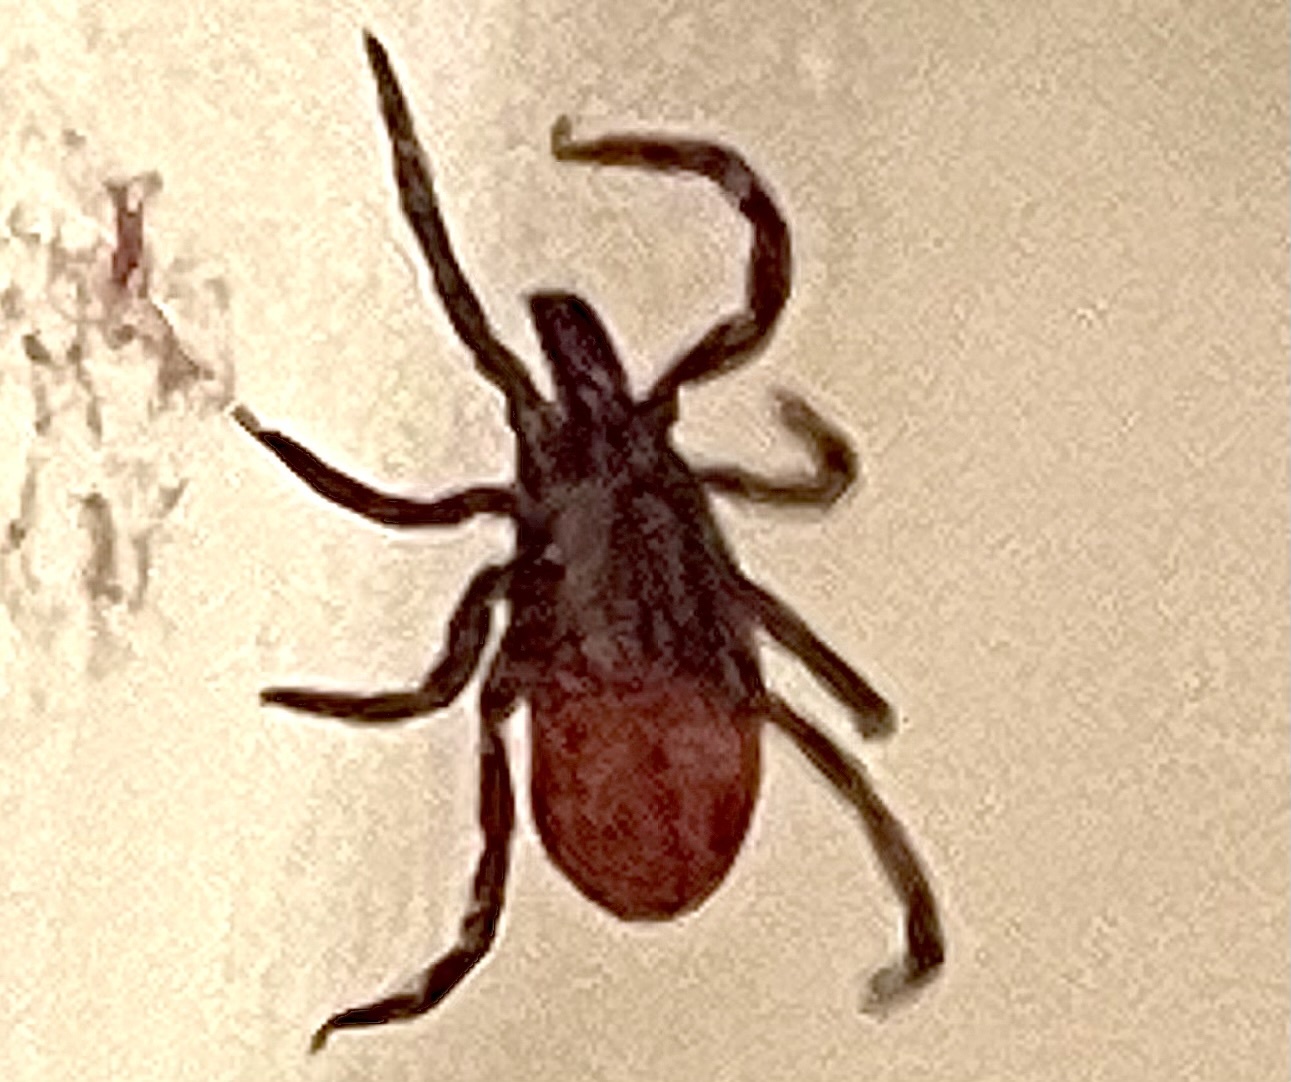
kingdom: Animalia
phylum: Arthropoda
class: Arachnida
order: Ixodida
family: Ixodidae
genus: Ixodes
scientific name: Ixodes pacificus
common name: California black-legged tick
